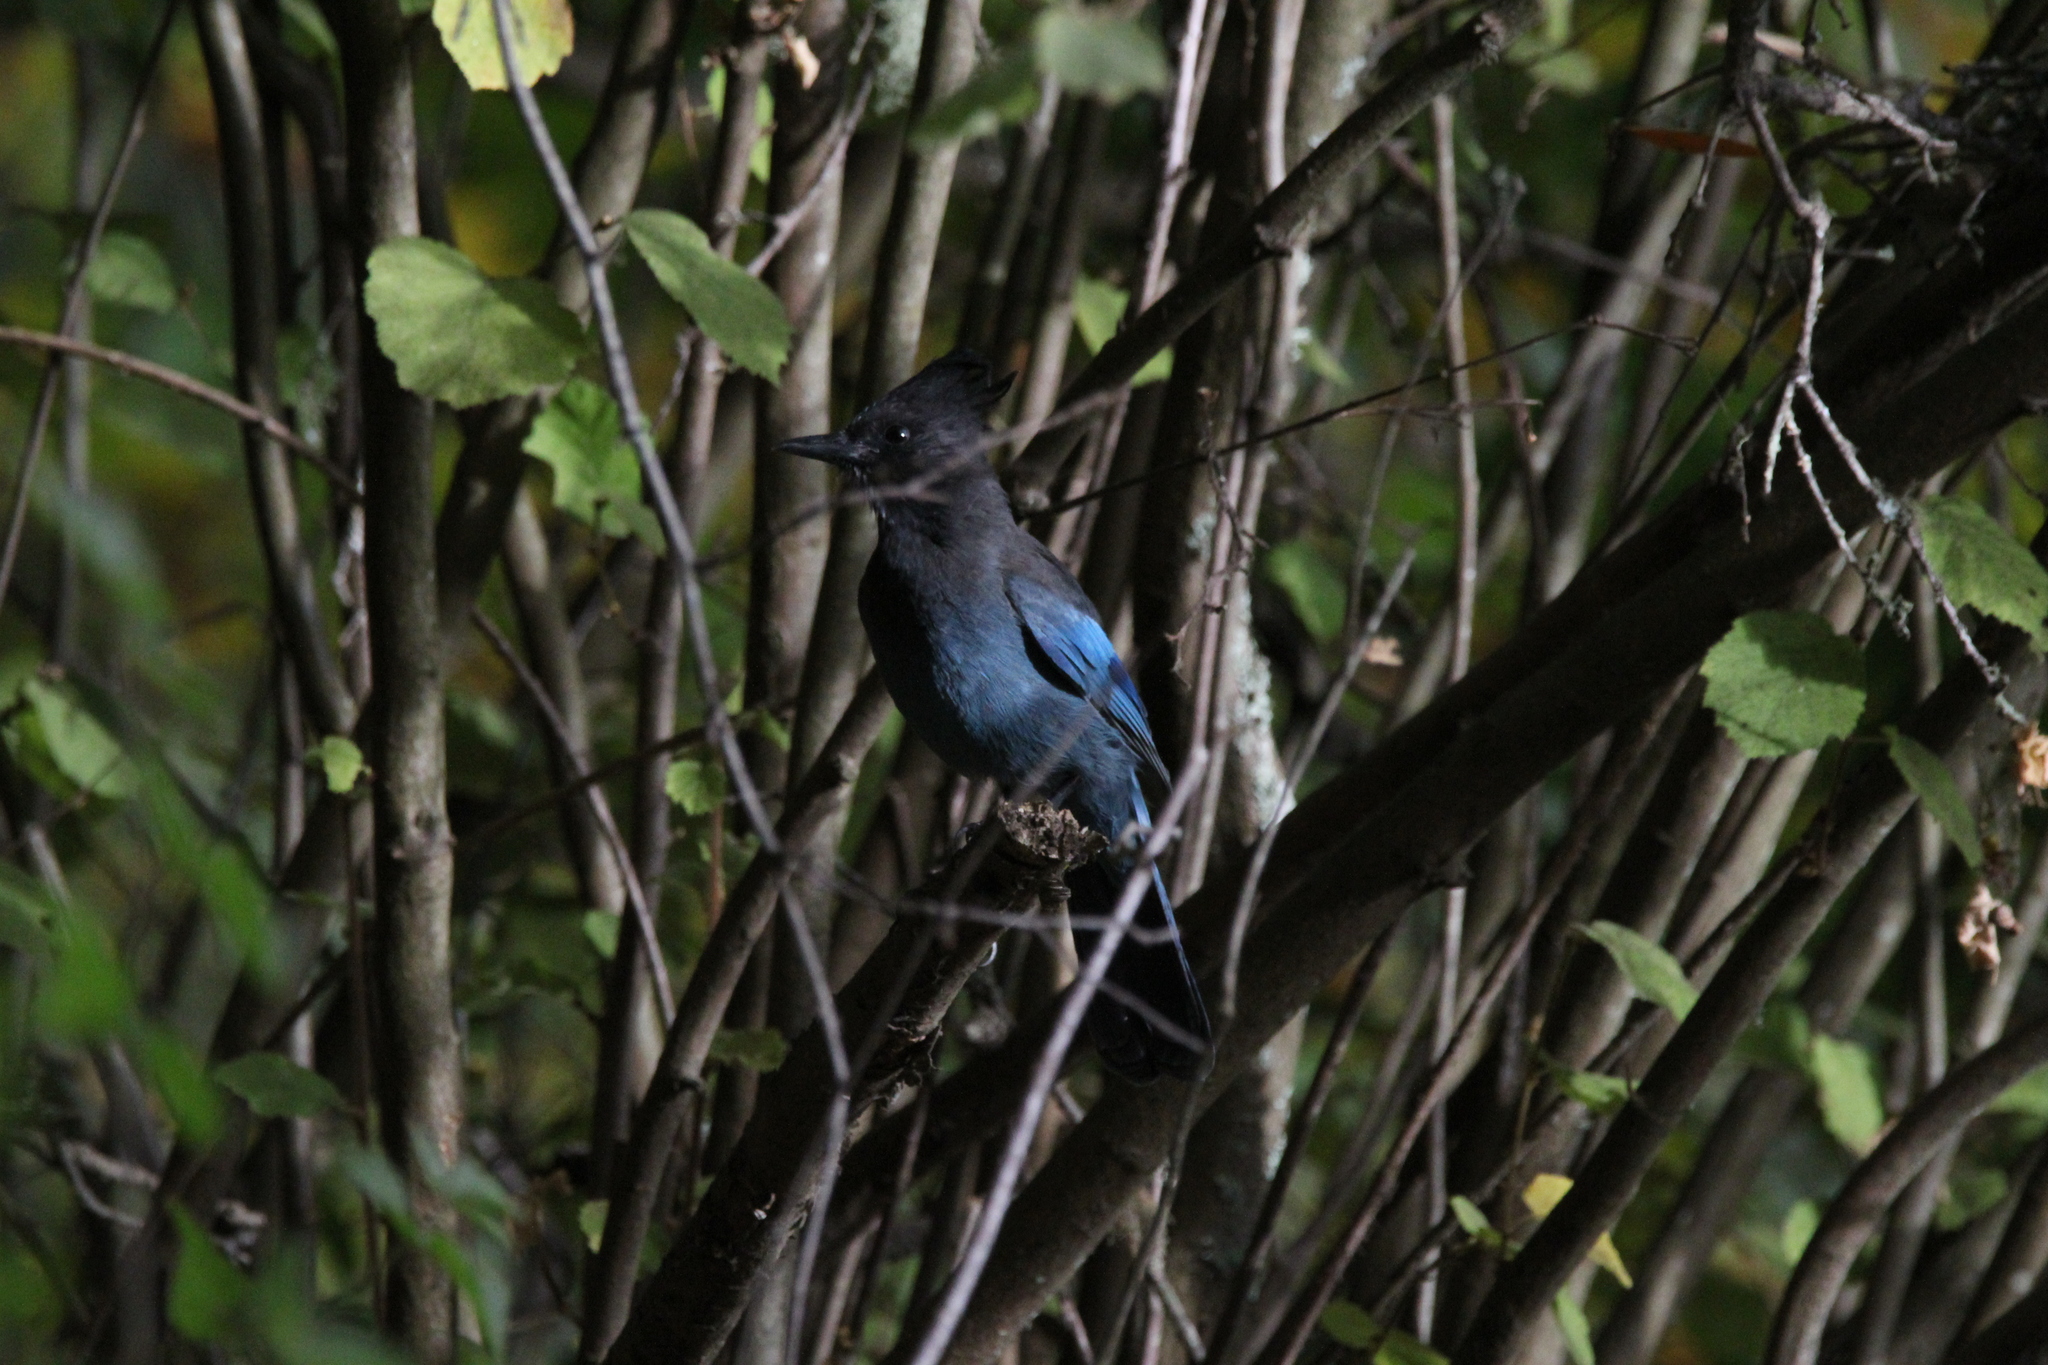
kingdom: Animalia
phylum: Chordata
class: Aves
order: Passeriformes
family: Corvidae
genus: Cyanocitta
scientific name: Cyanocitta stelleri
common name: Steller's jay
